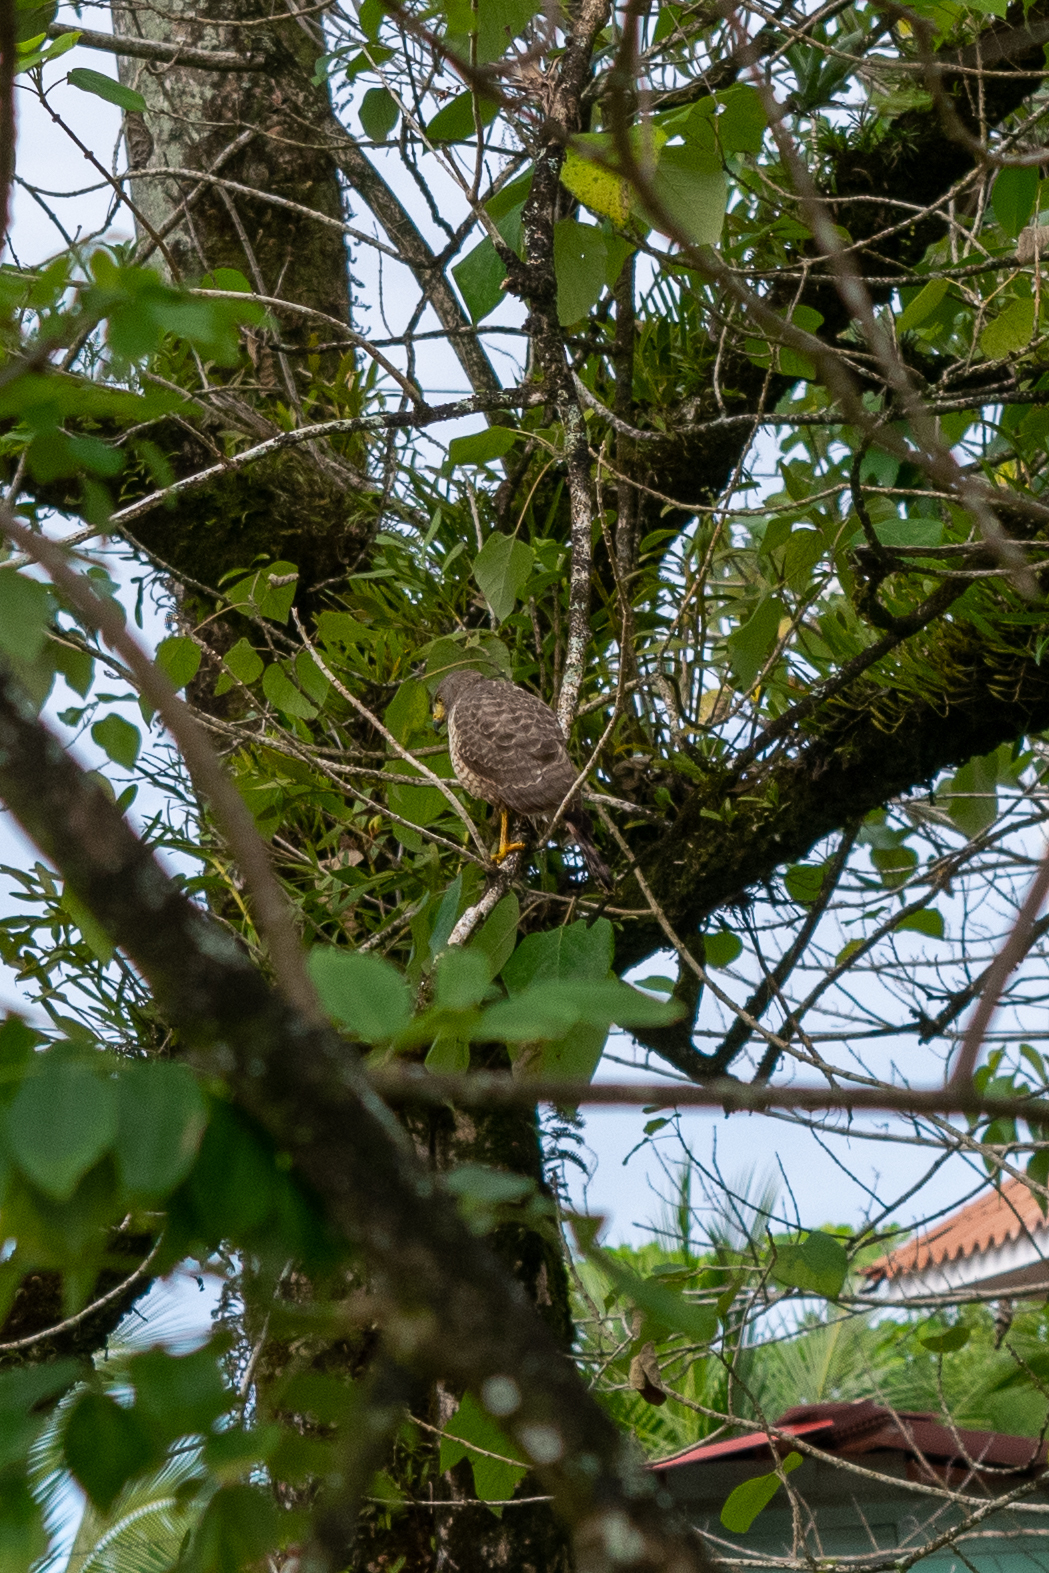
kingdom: Animalia
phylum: Chordata
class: Aves
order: Accipitriformes
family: Accipitridae
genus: Rupornis
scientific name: Rupornis magnirostris
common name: Roadside hawk
